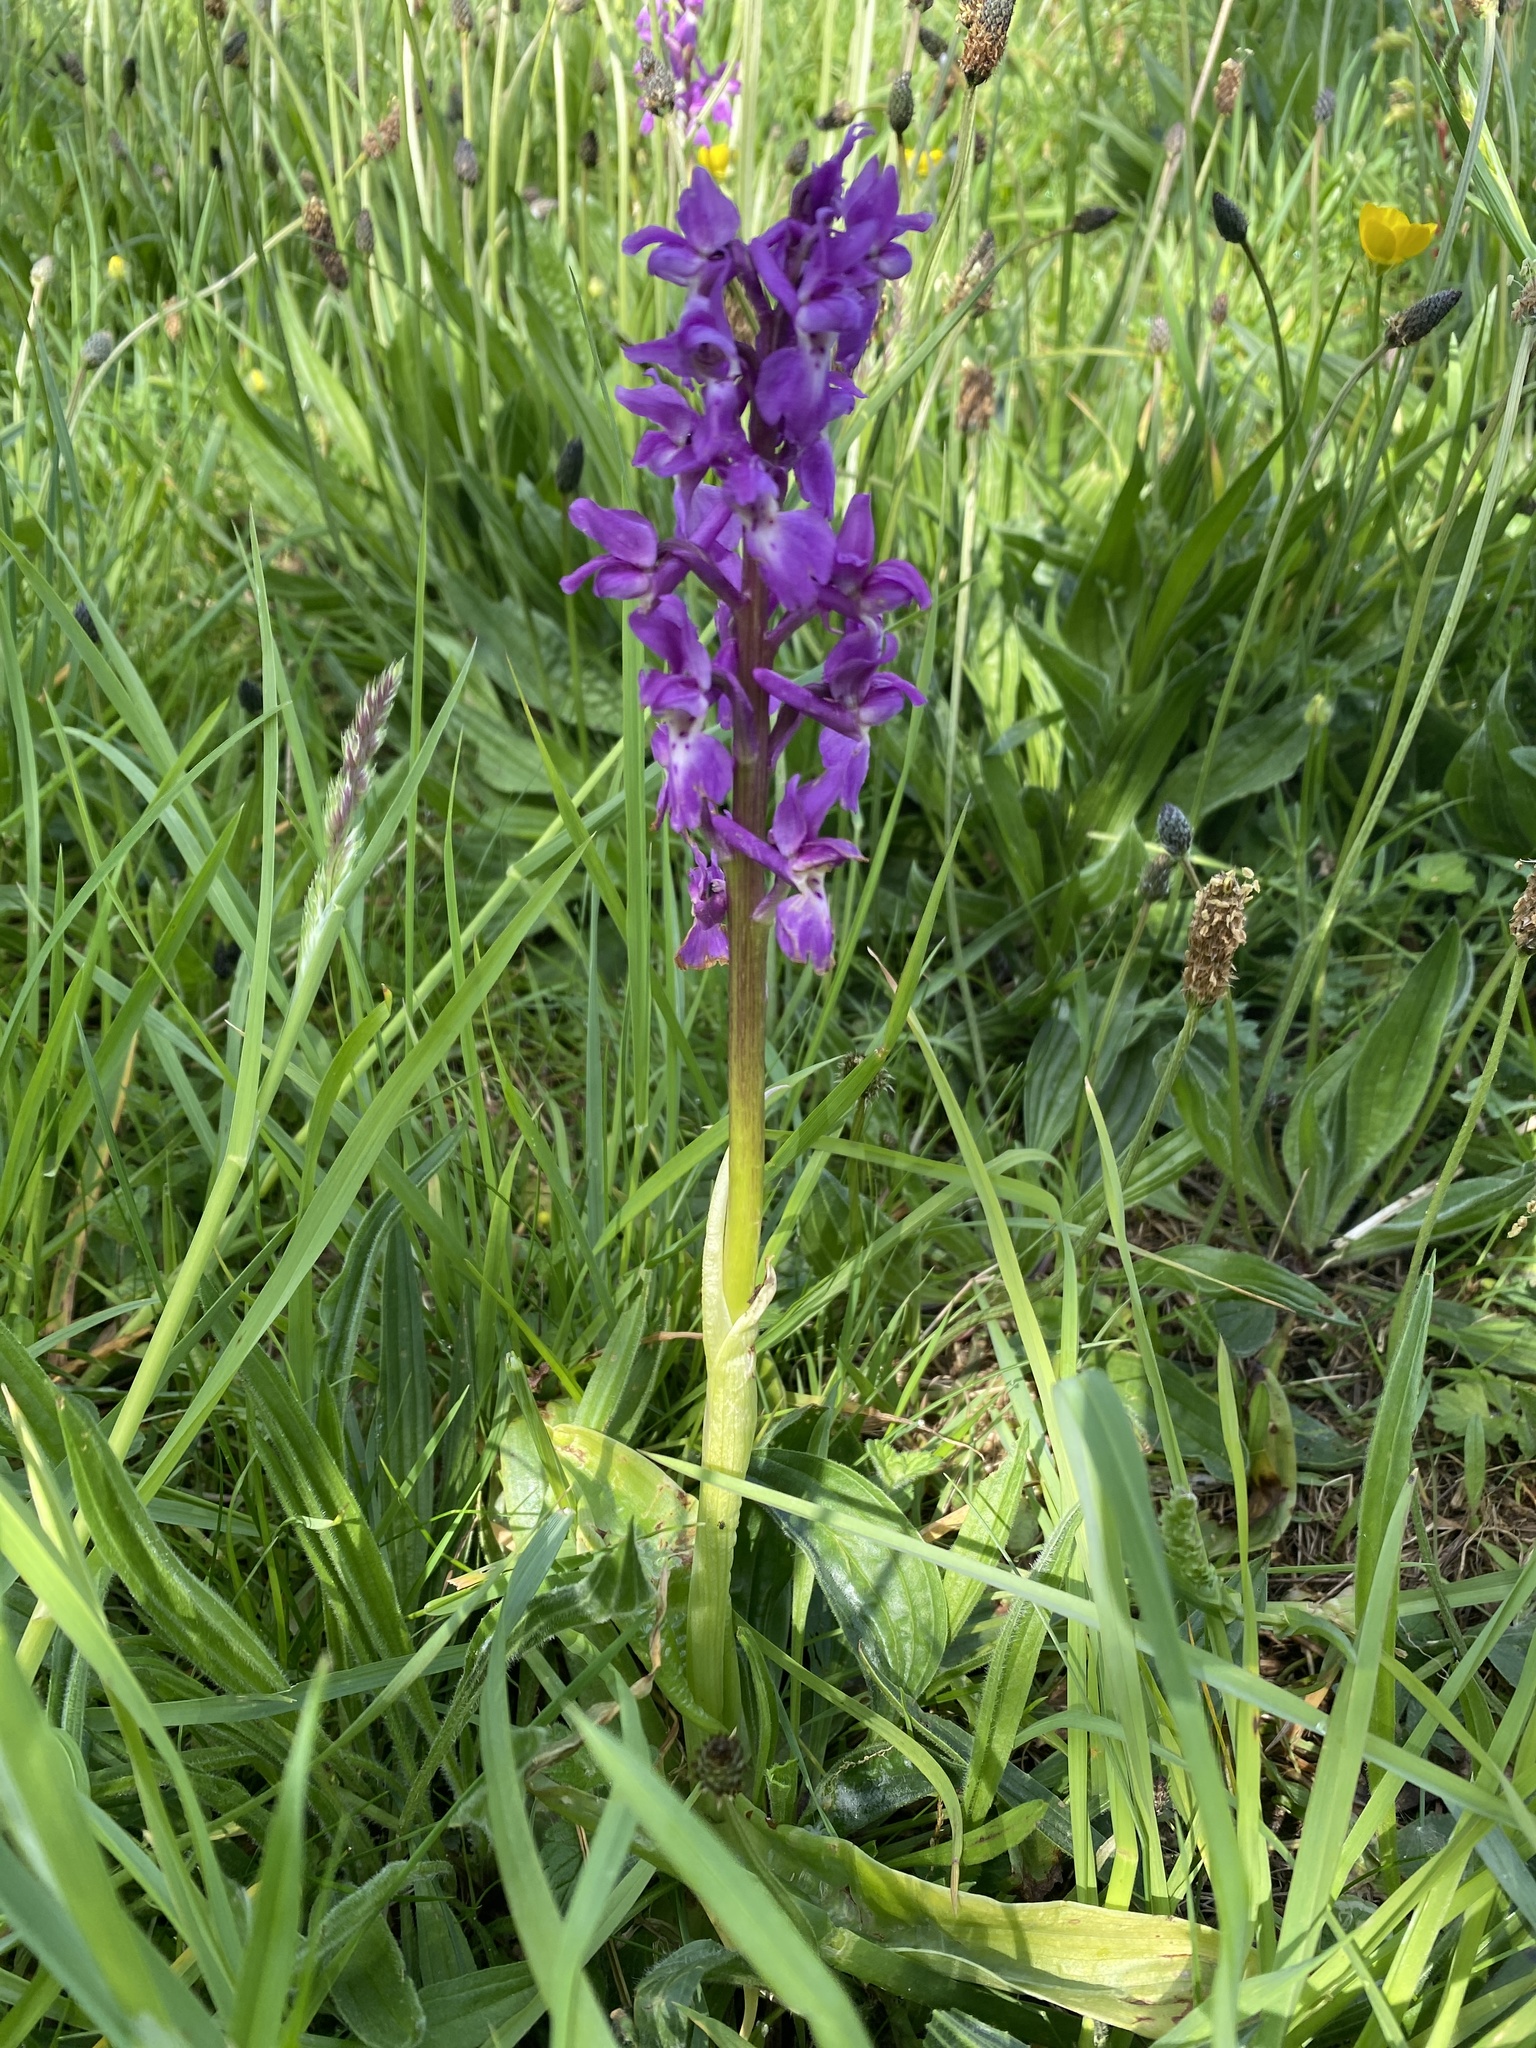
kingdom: Plantae
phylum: Tracheophyta
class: Liliopsida
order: Asparagales
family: Orchidaceae
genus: Orchis
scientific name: Orchis mascula
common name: Early-purple orchid
